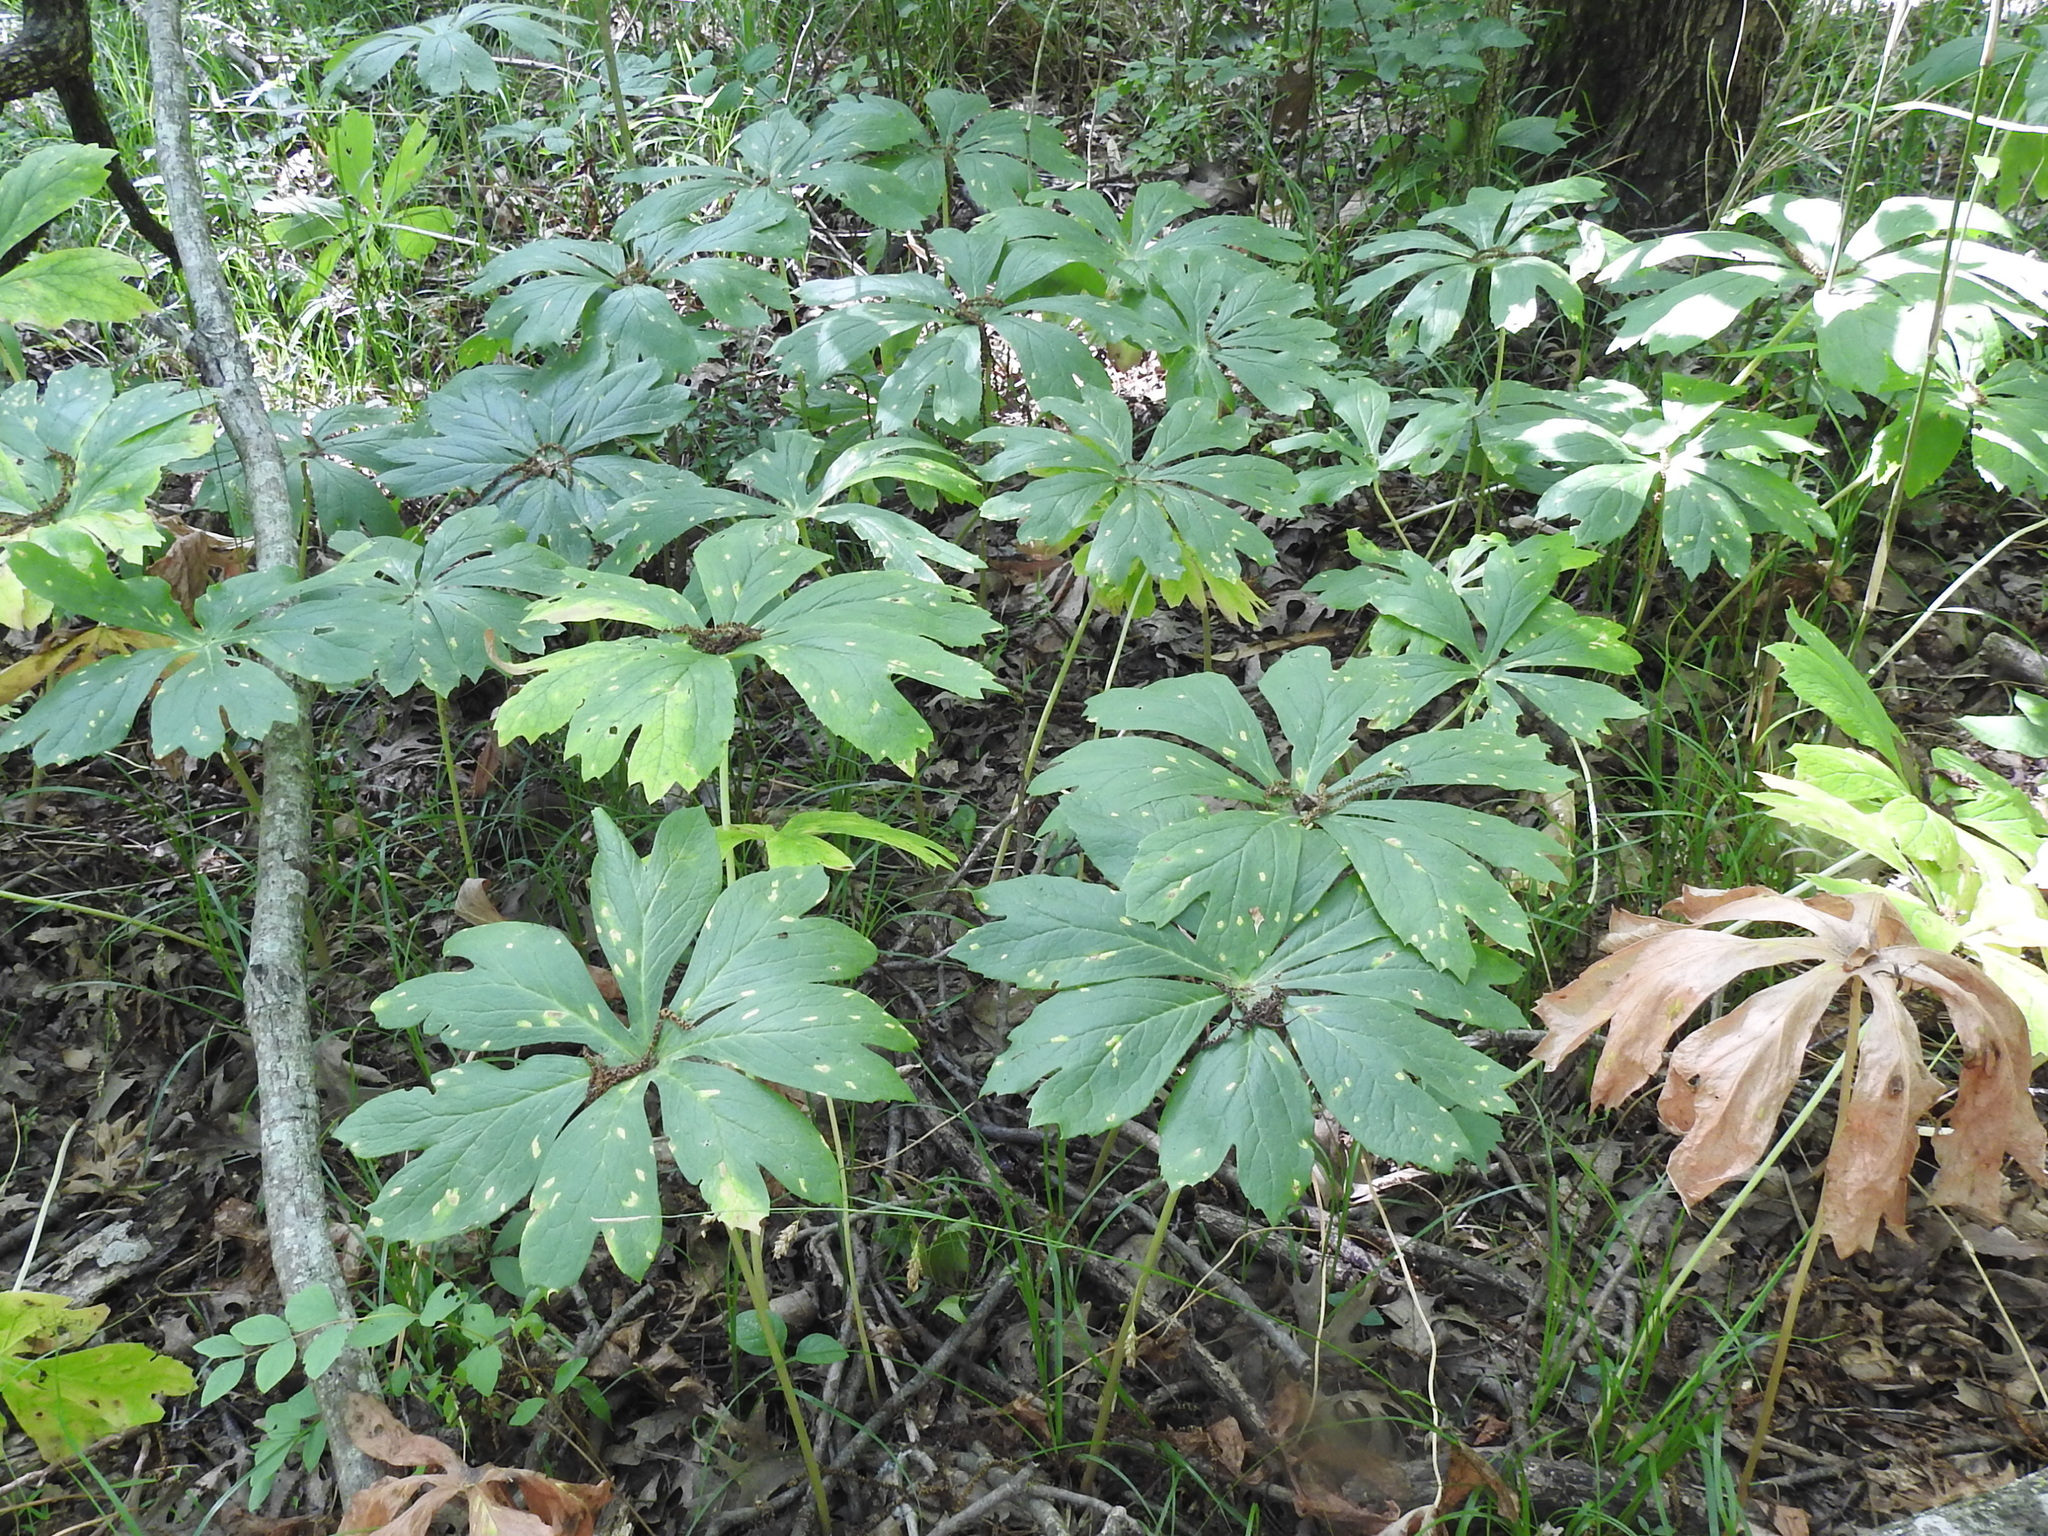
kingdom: Plantae
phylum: Tracheophyta
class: Magnoliopsida
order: Ranunculales
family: Berberidaceae
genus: Podophyllum
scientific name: Podophyllum peltatum
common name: Wild mandrake
